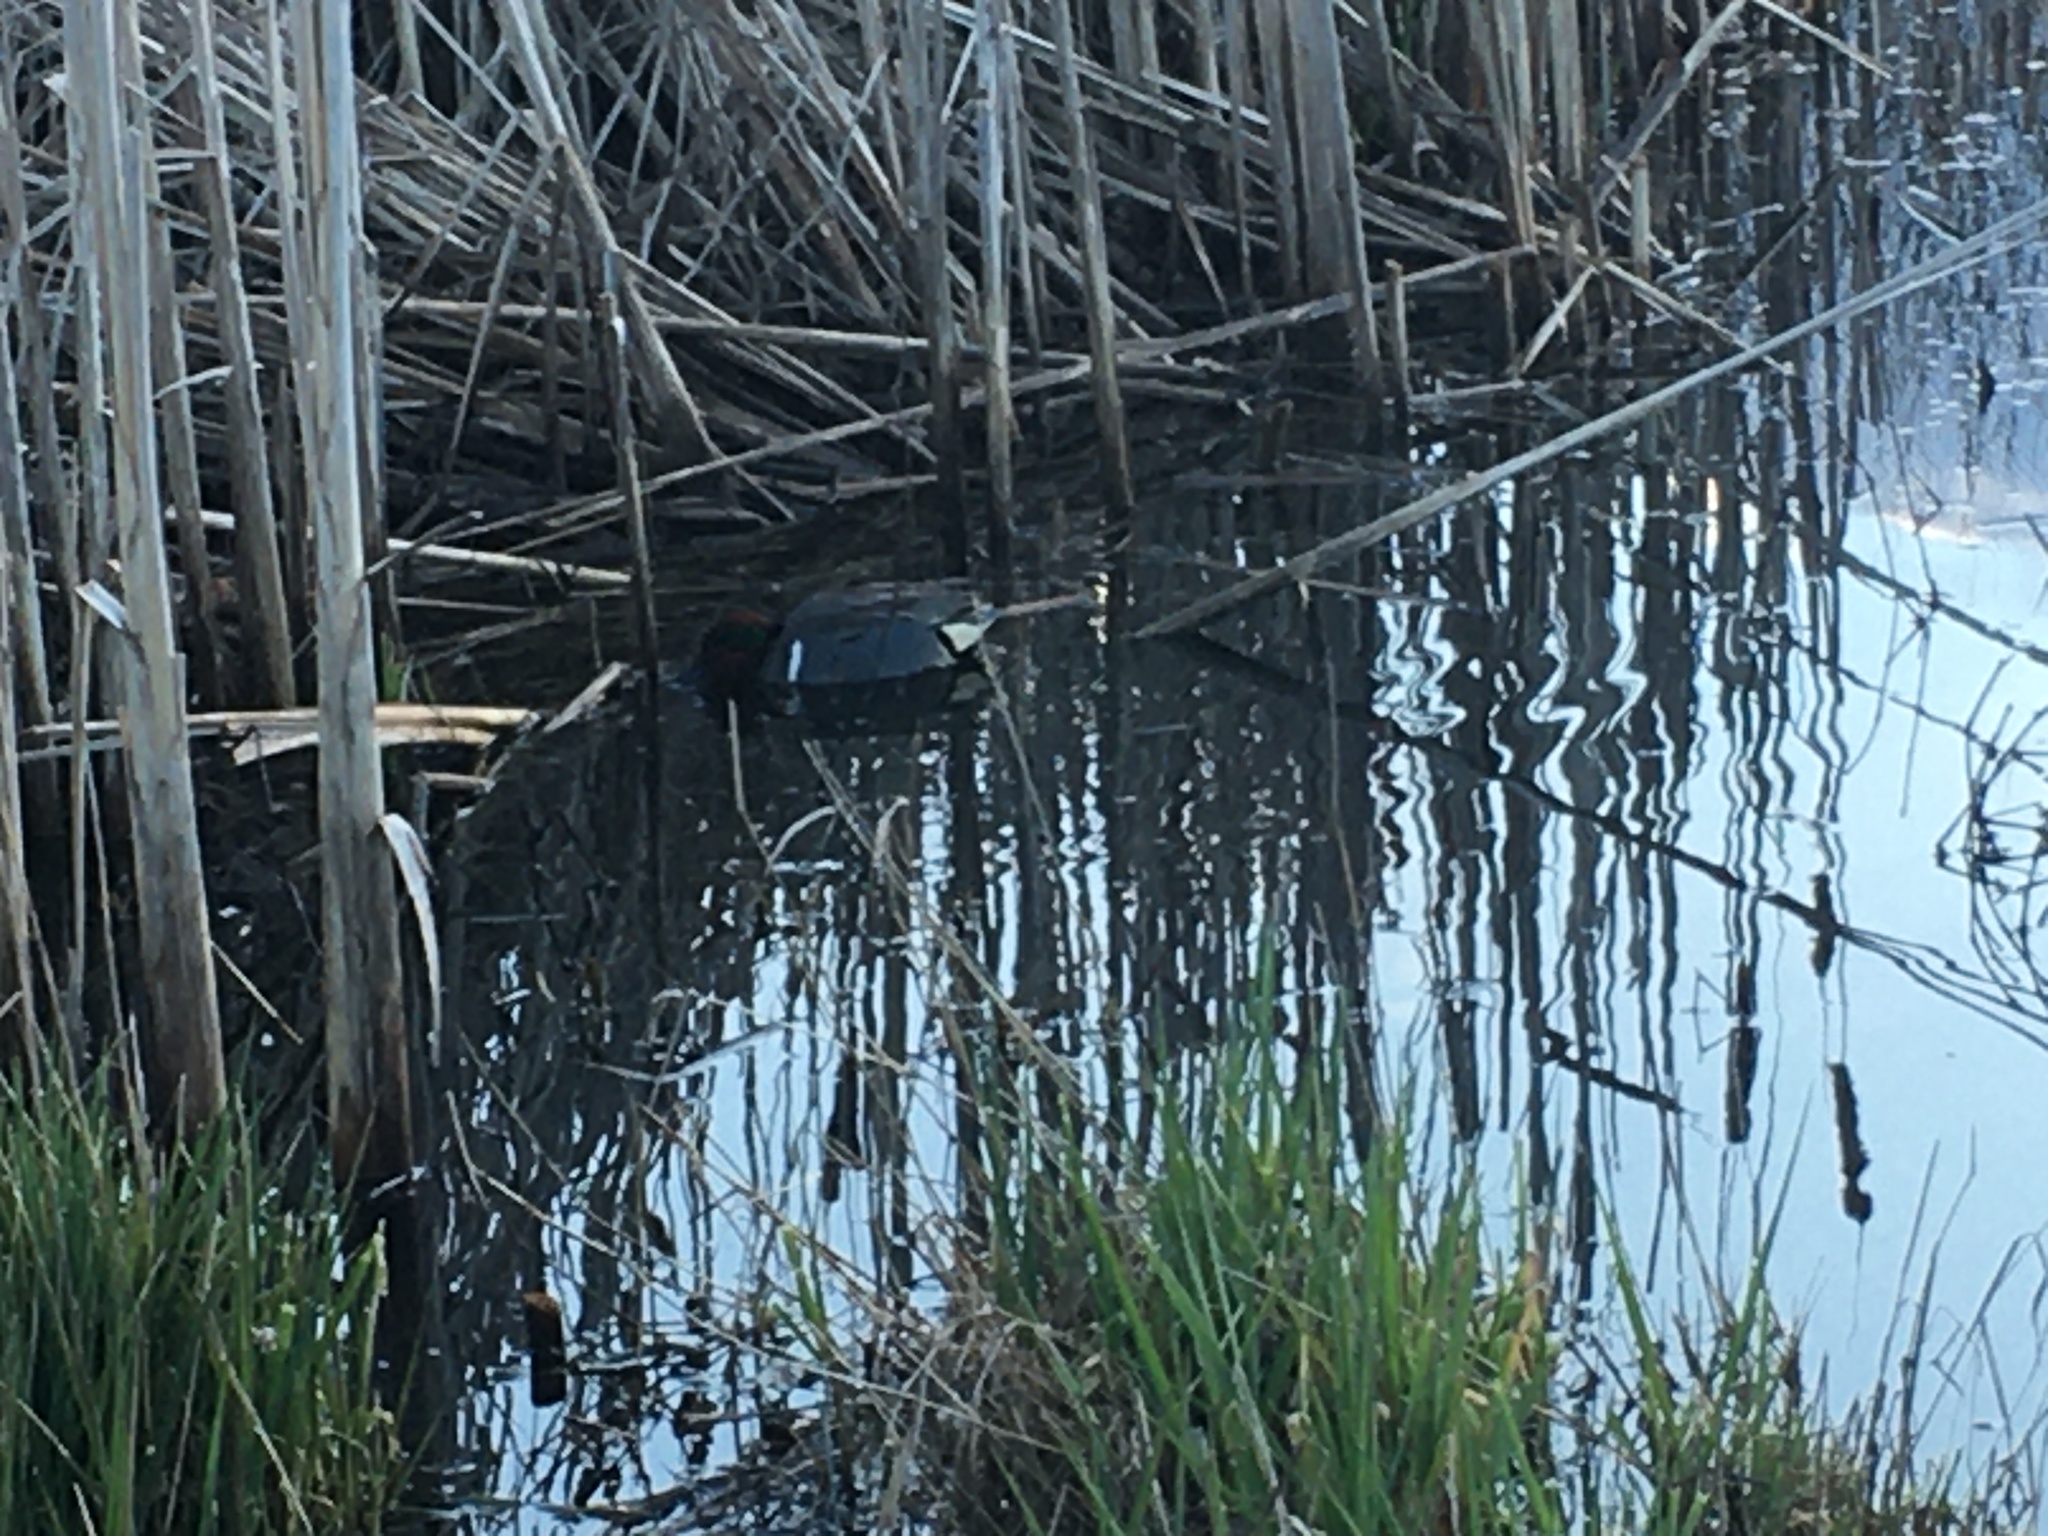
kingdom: Animalia
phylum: Chordata
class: Aves
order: Anseriformes
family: Anatidae
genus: Anas
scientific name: Anas crecca
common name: Eurasian teal
